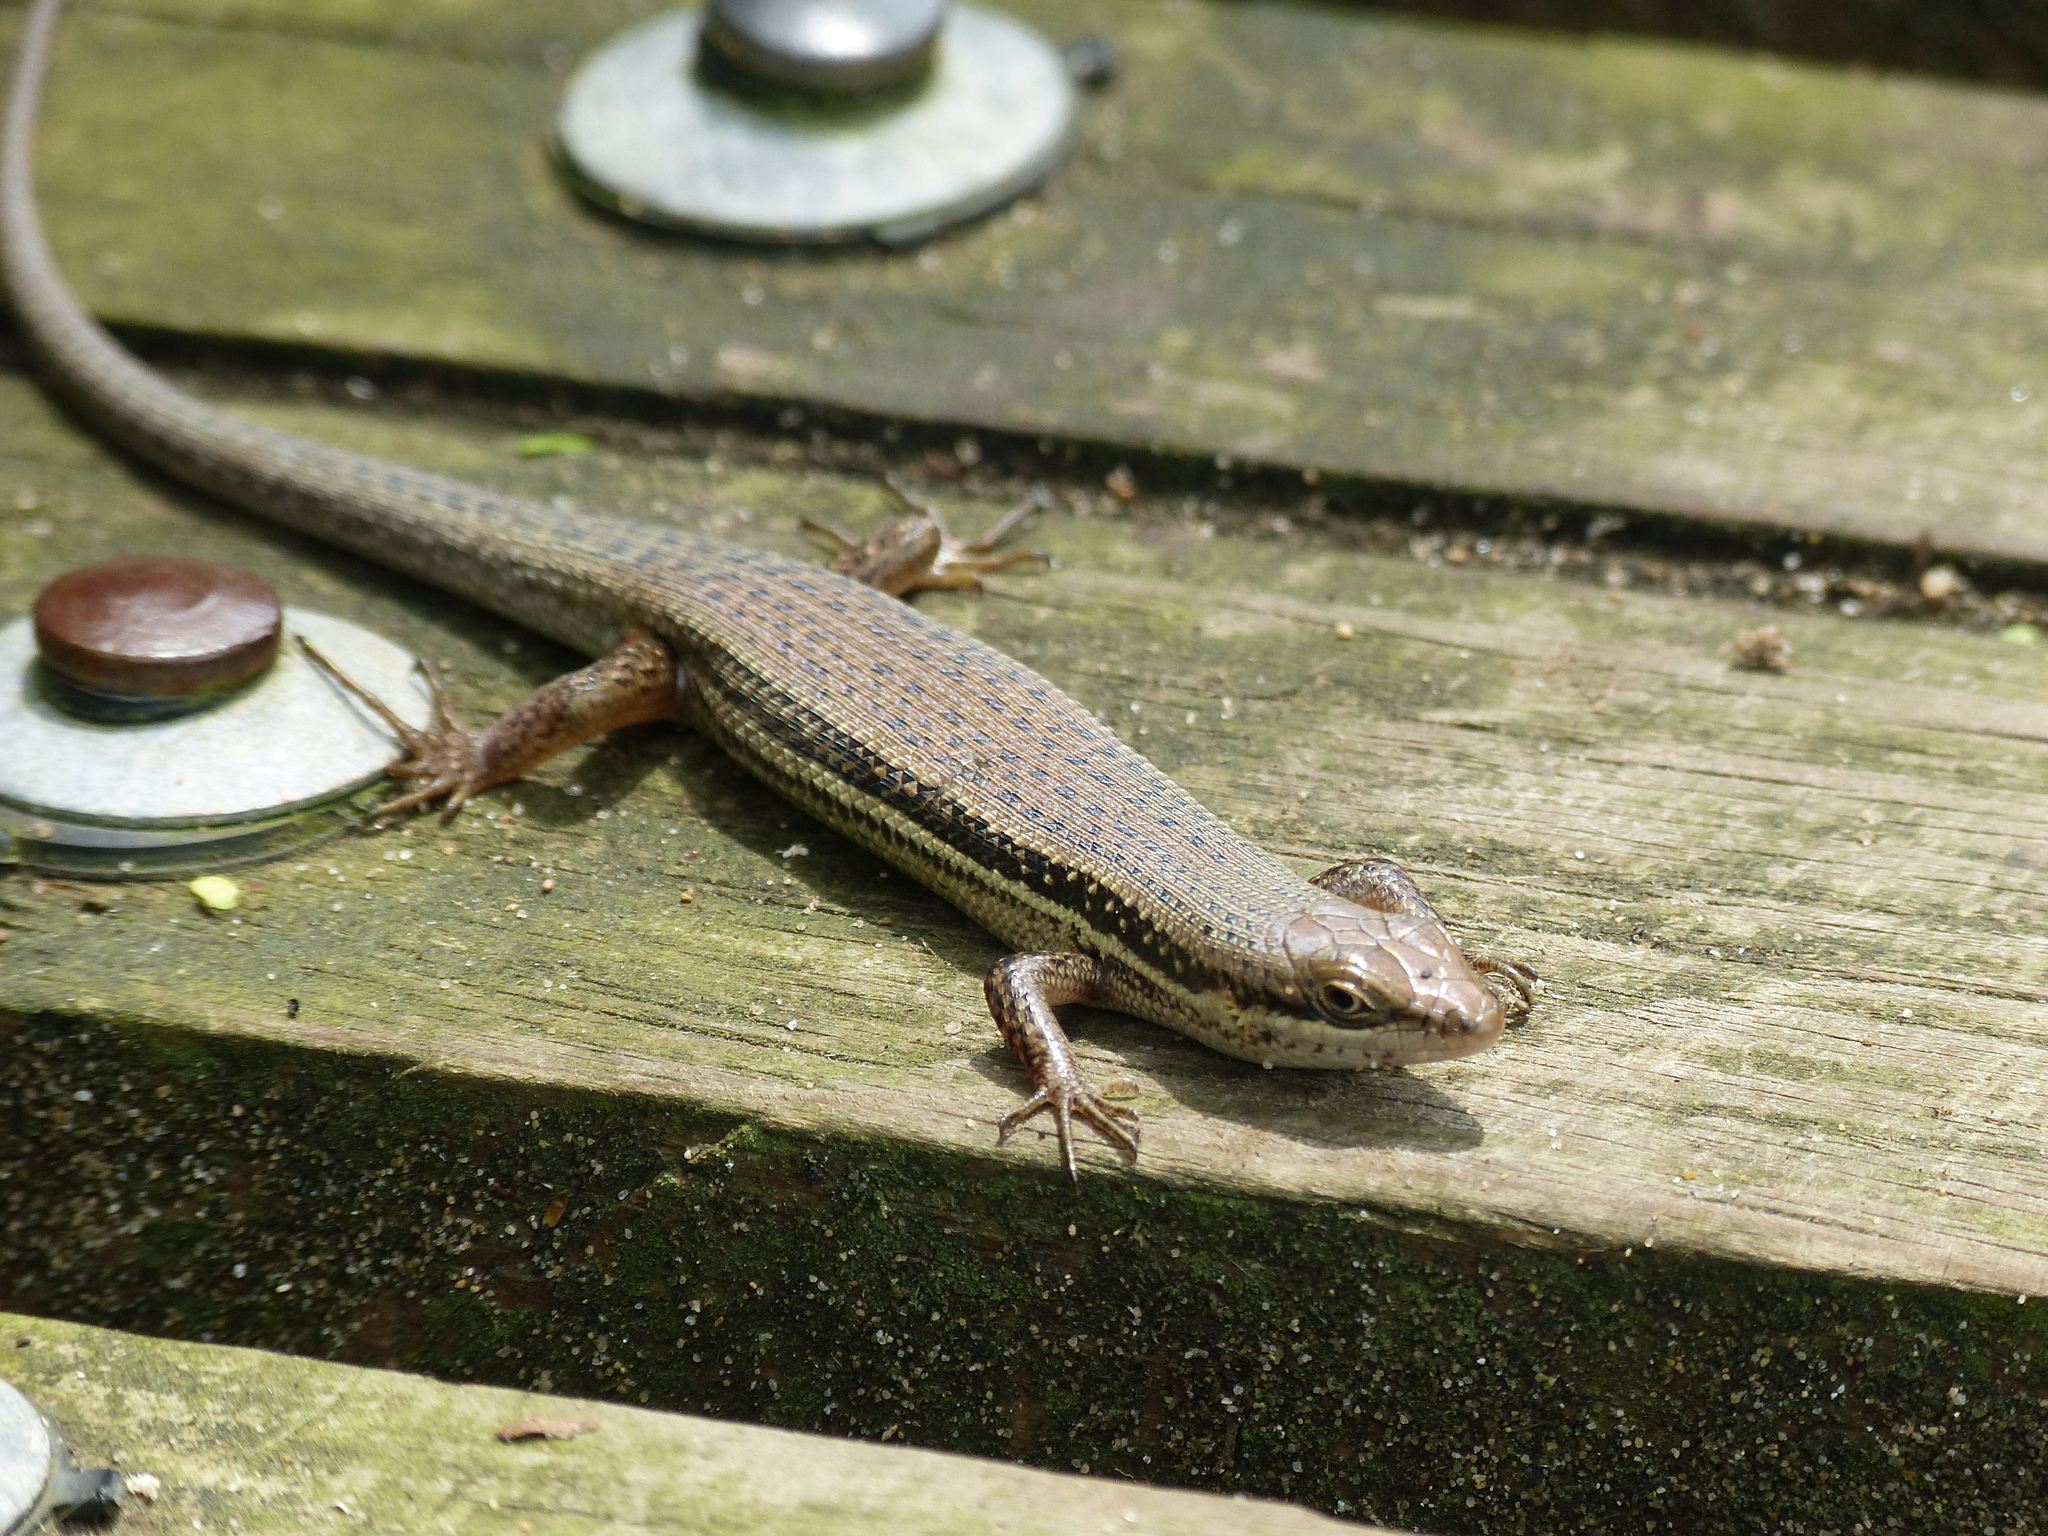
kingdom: Animalia
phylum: Chordata
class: Squamata
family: Scincidae
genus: Trachylepis
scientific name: Trachylepis depressa
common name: Eastern coastal skink
